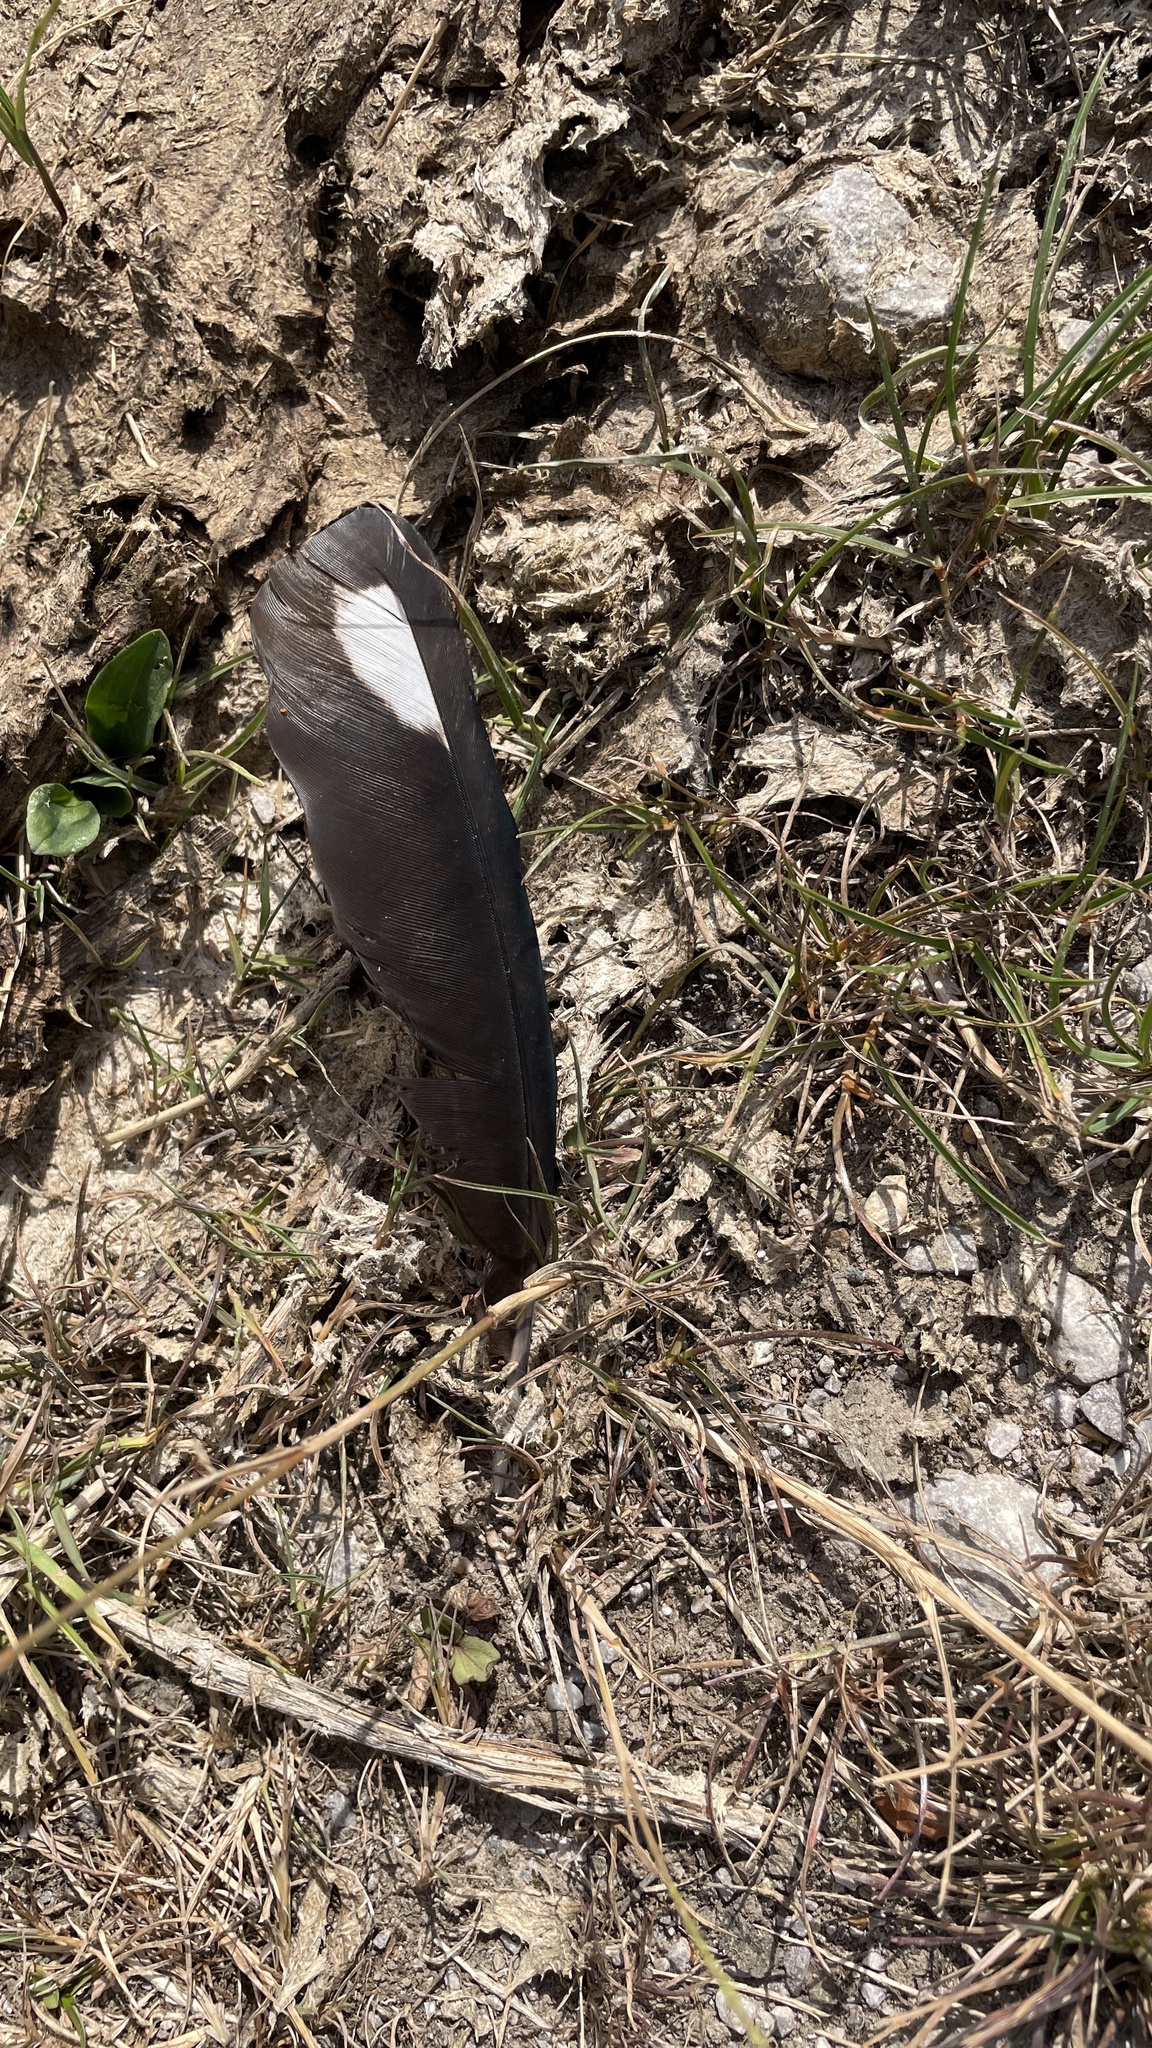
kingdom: Animalia
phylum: Chordata
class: Aves
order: Passeriformes
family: Corvidae
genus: Pica
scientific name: Pica pica
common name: Eurasian magpie
